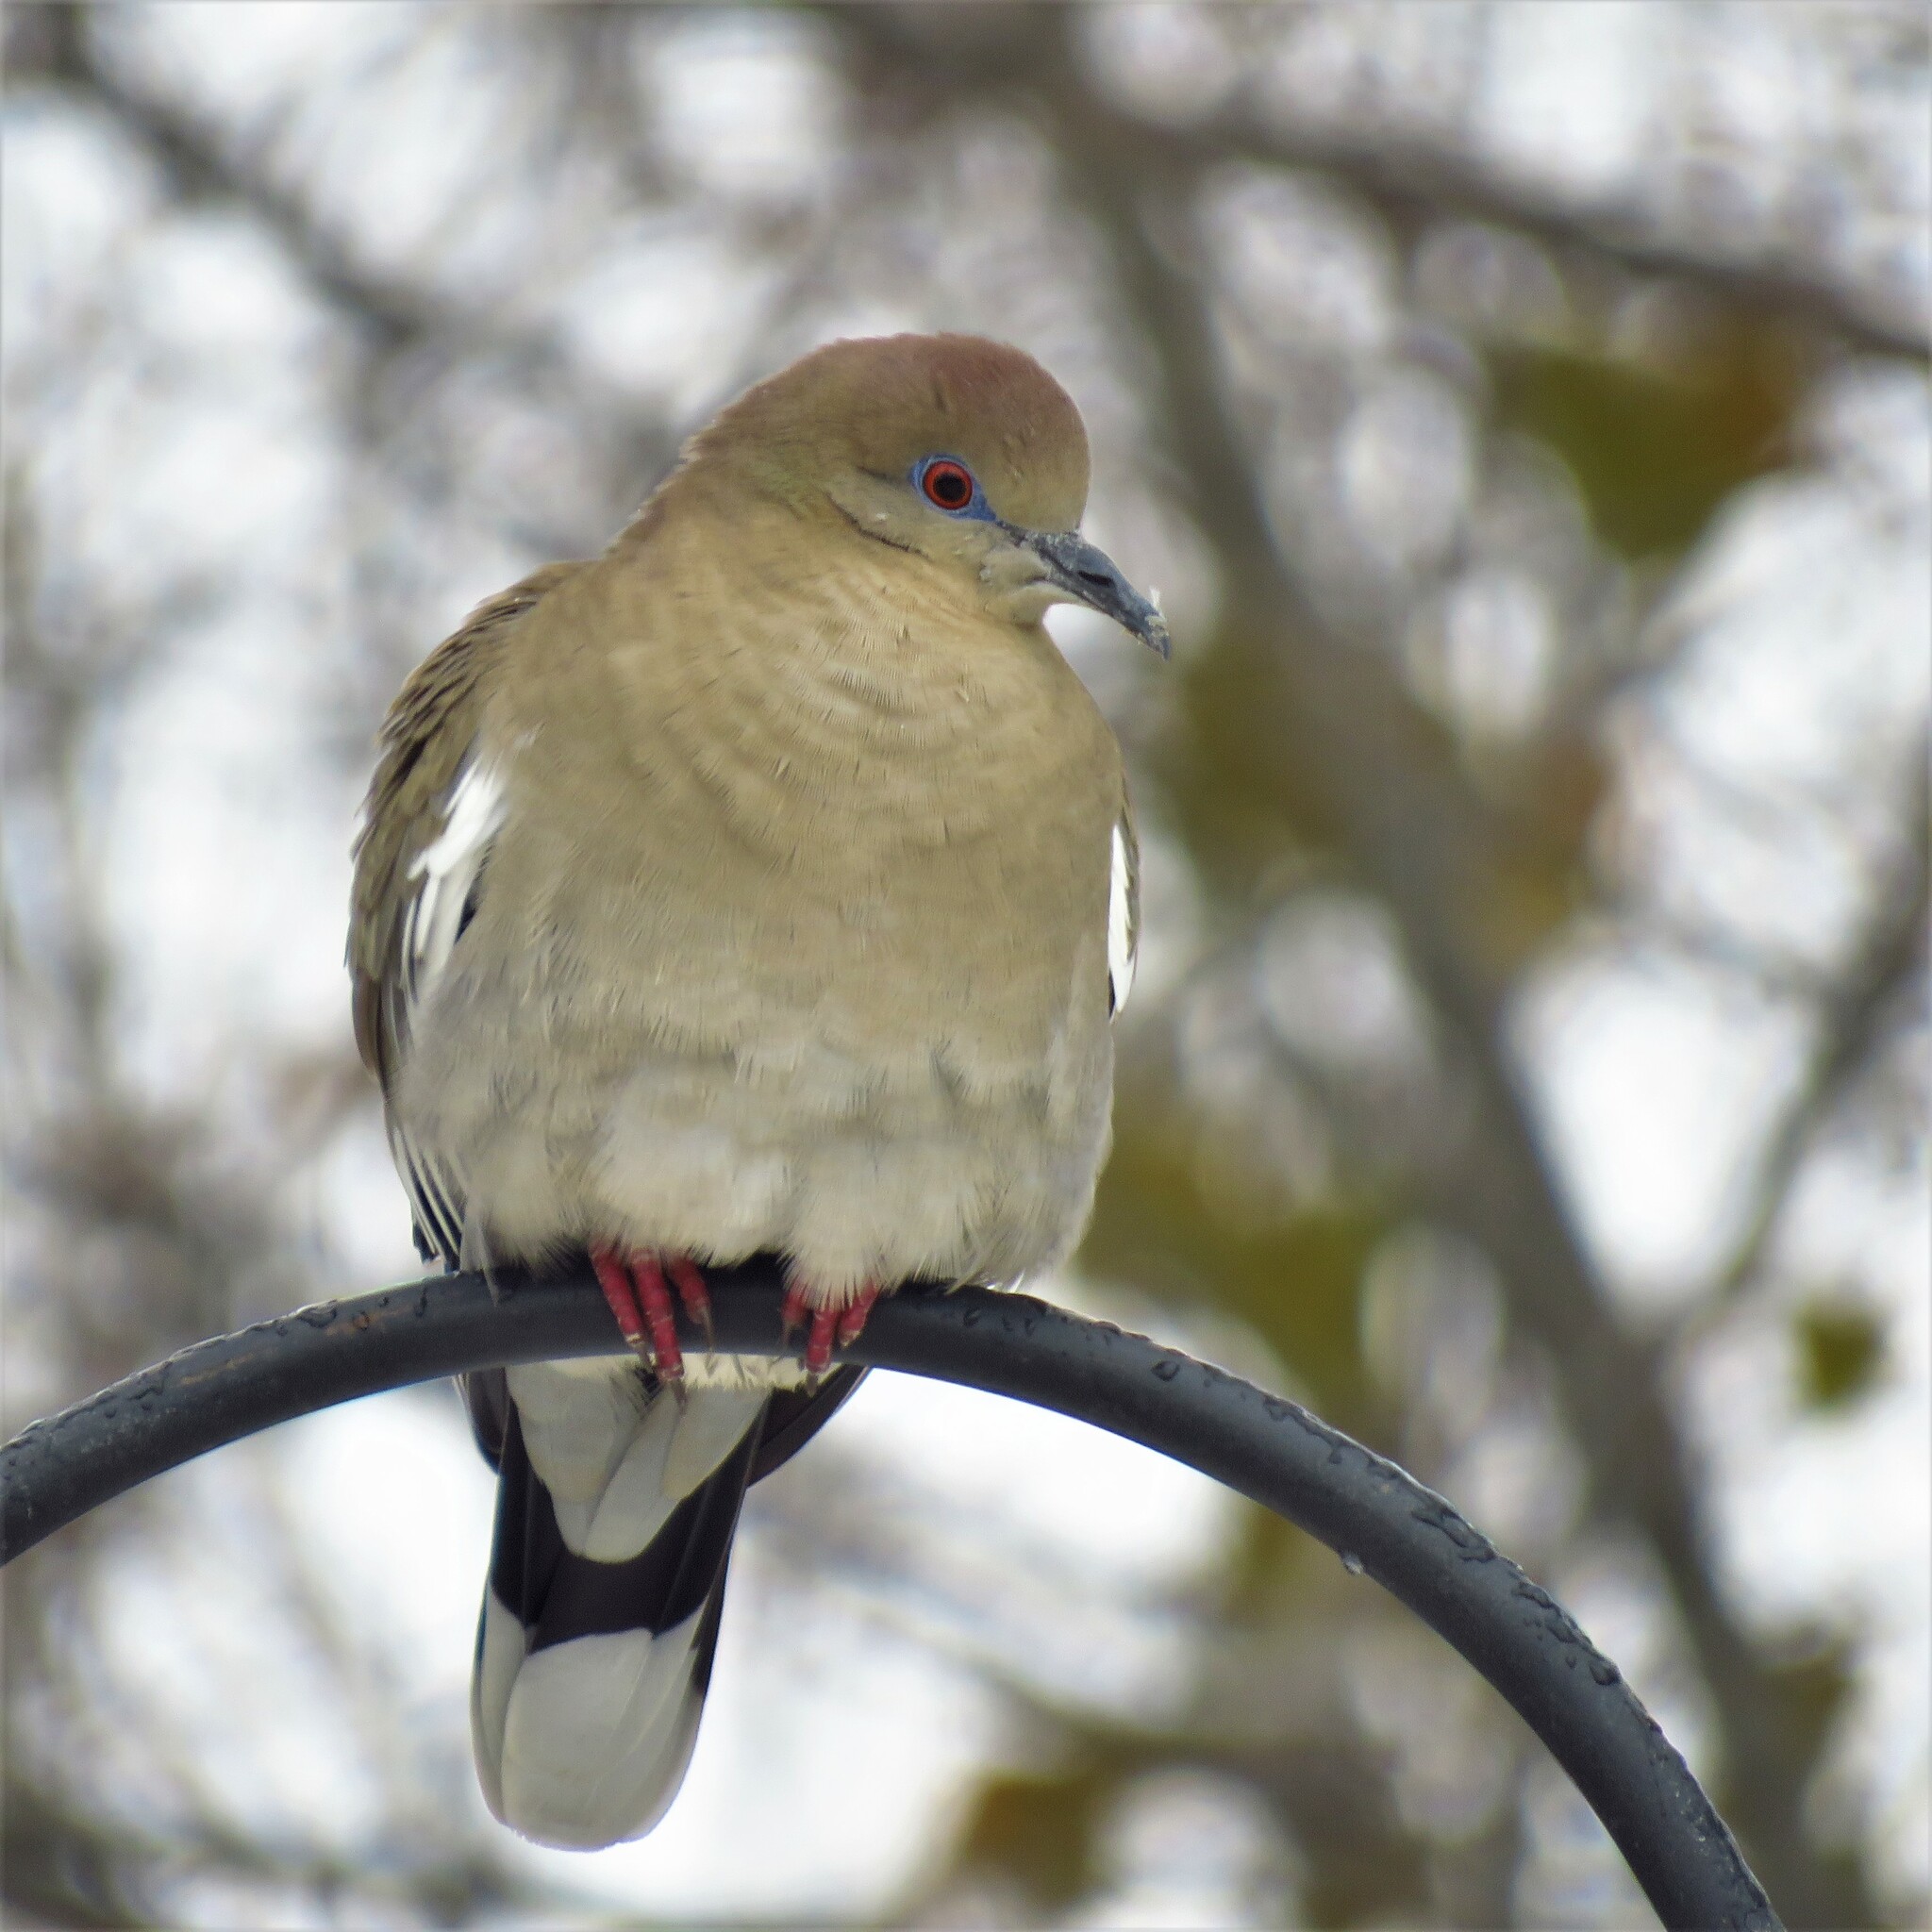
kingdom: Animalia
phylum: Chordata
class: Aves
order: Columbiformes
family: Columbidae
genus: Zenaida
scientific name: Zenaida asiatica
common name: White-winged dove
